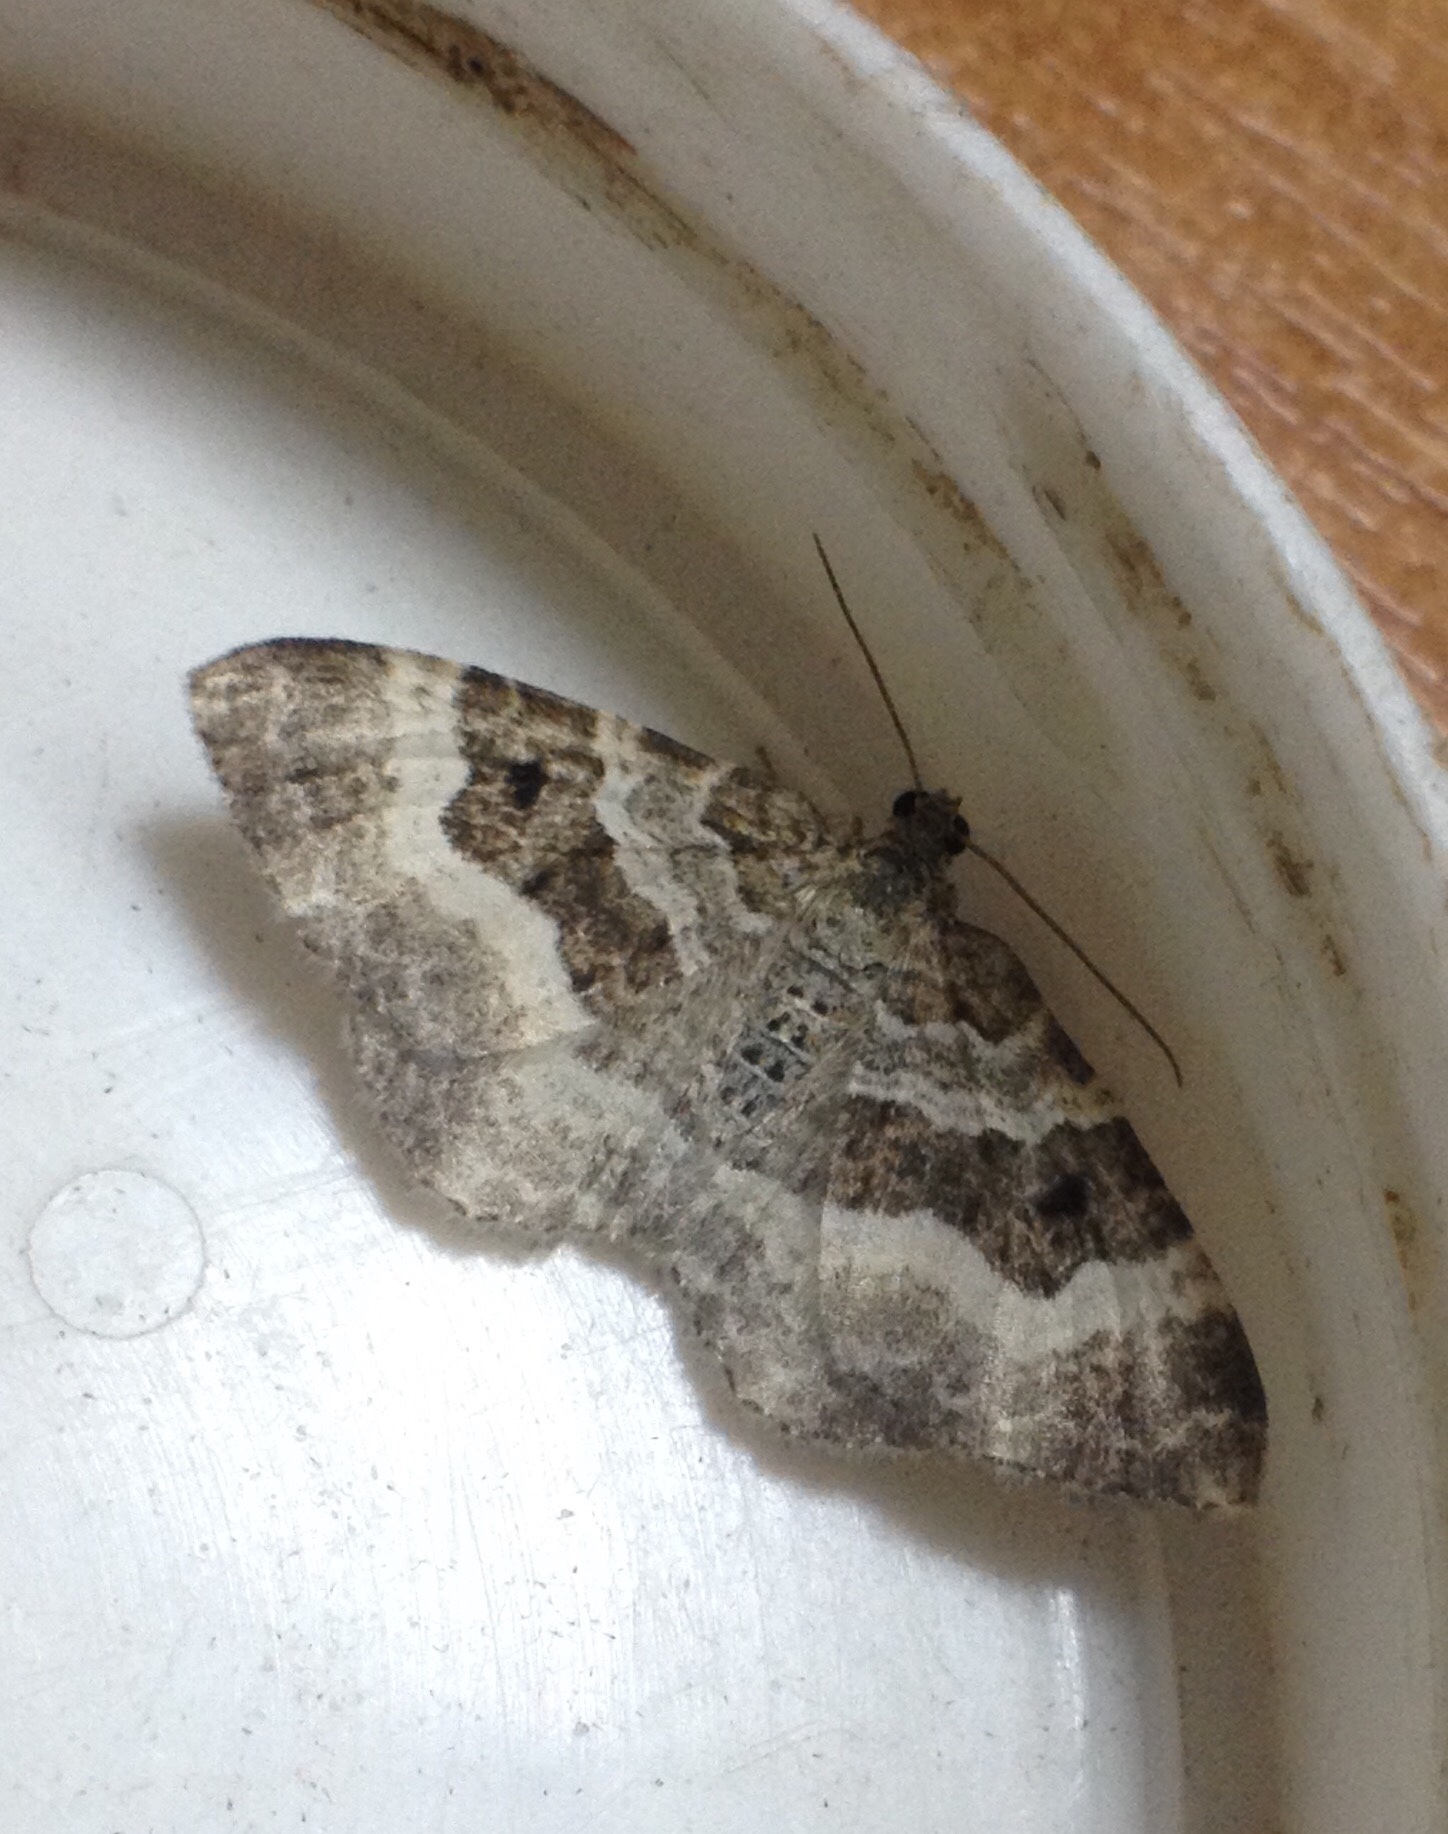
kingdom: Animalia
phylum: Arthropoda
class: Insecta
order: Lepidoptera
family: Geometridae
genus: Epirrhoe
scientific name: Epirrhoe alternata
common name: Common carpet
